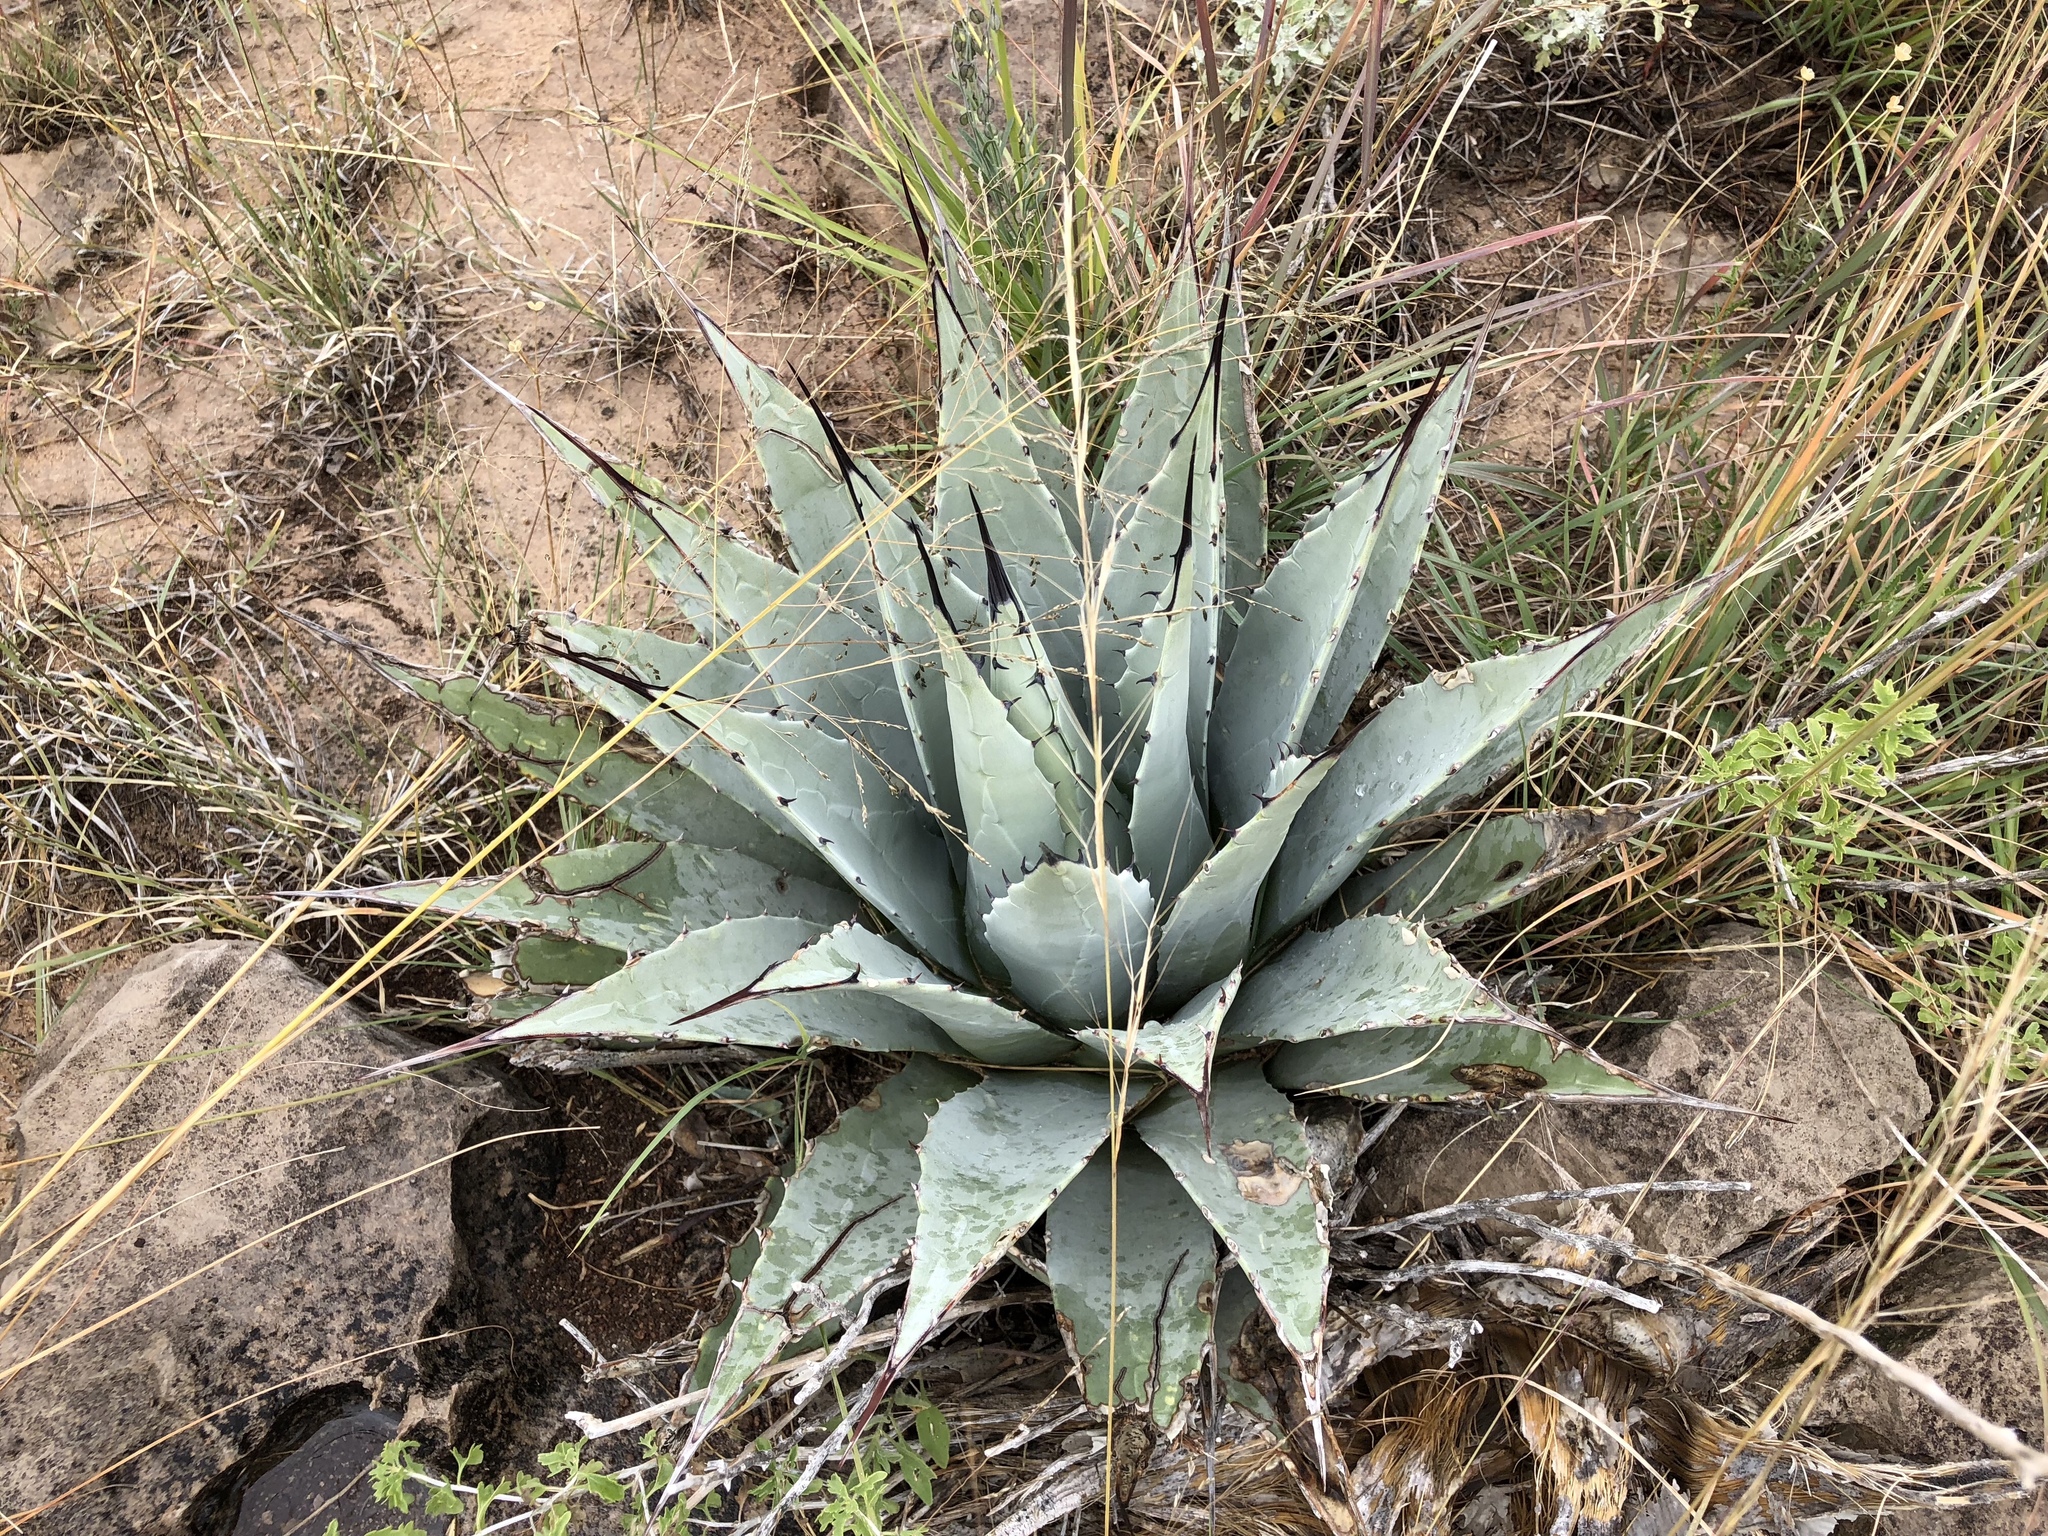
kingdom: Plantae
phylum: Tracheophyta
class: Liliopsida
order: Asparagales
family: Asparagaceae
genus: Agave
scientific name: Agave parryi
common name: Parry's agave
